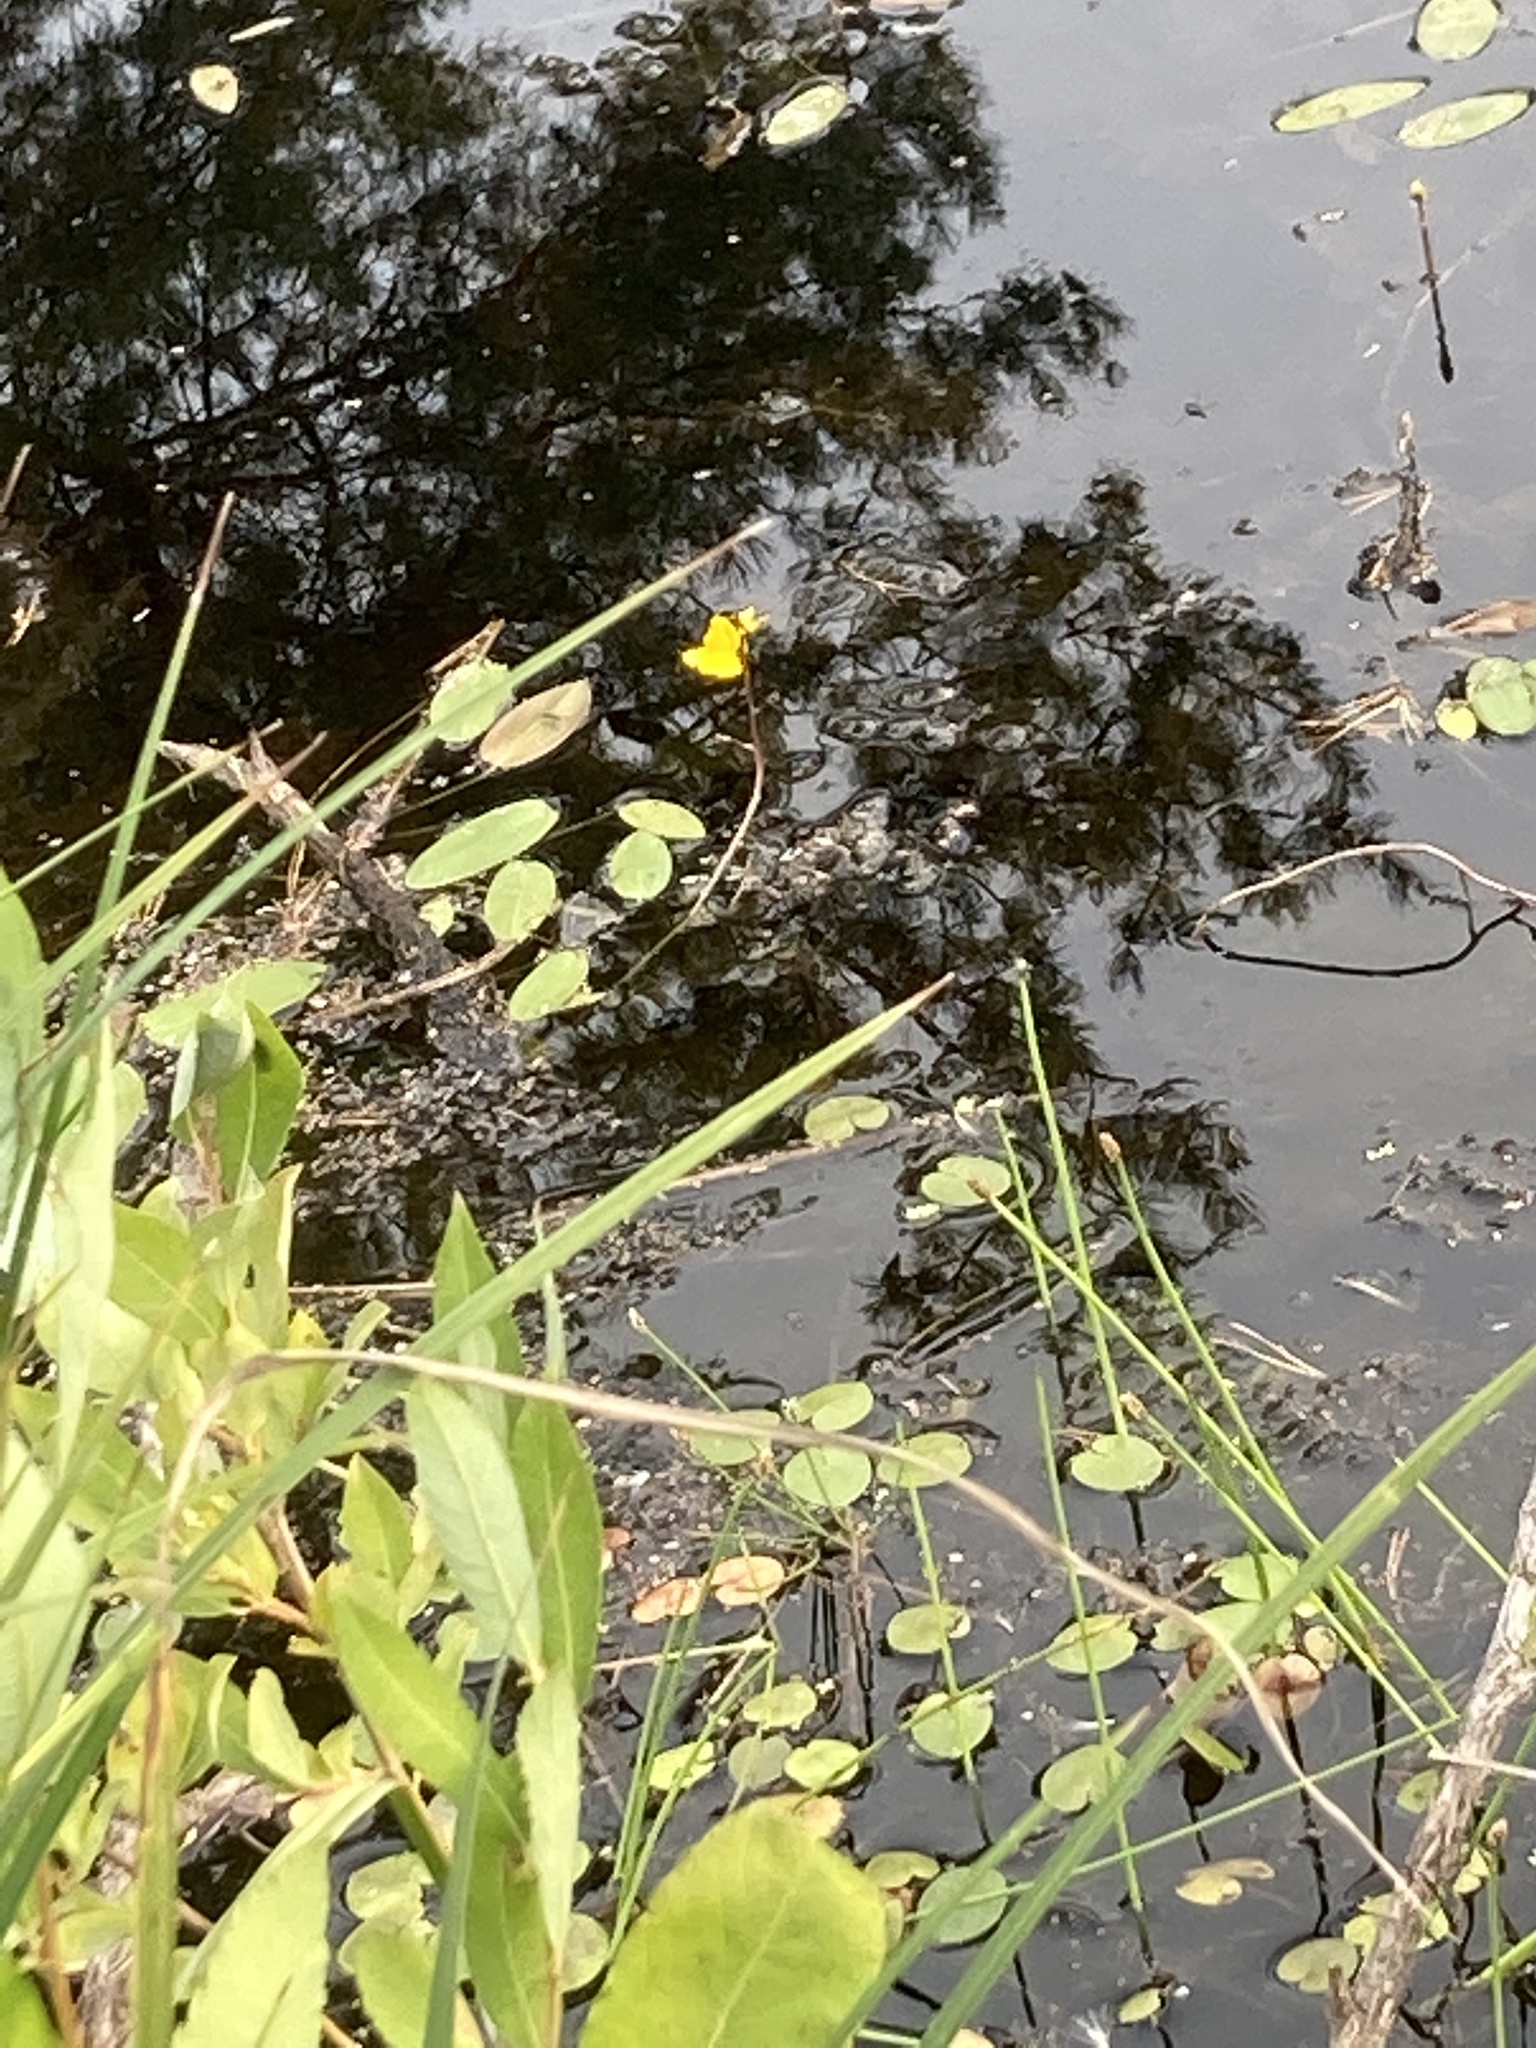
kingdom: Plantae
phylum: Tracheophyta
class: Magnoliopsida
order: Lamiales
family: Lentibulariaceae
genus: Utricularia
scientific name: Utricularia australis
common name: Bladderwort
